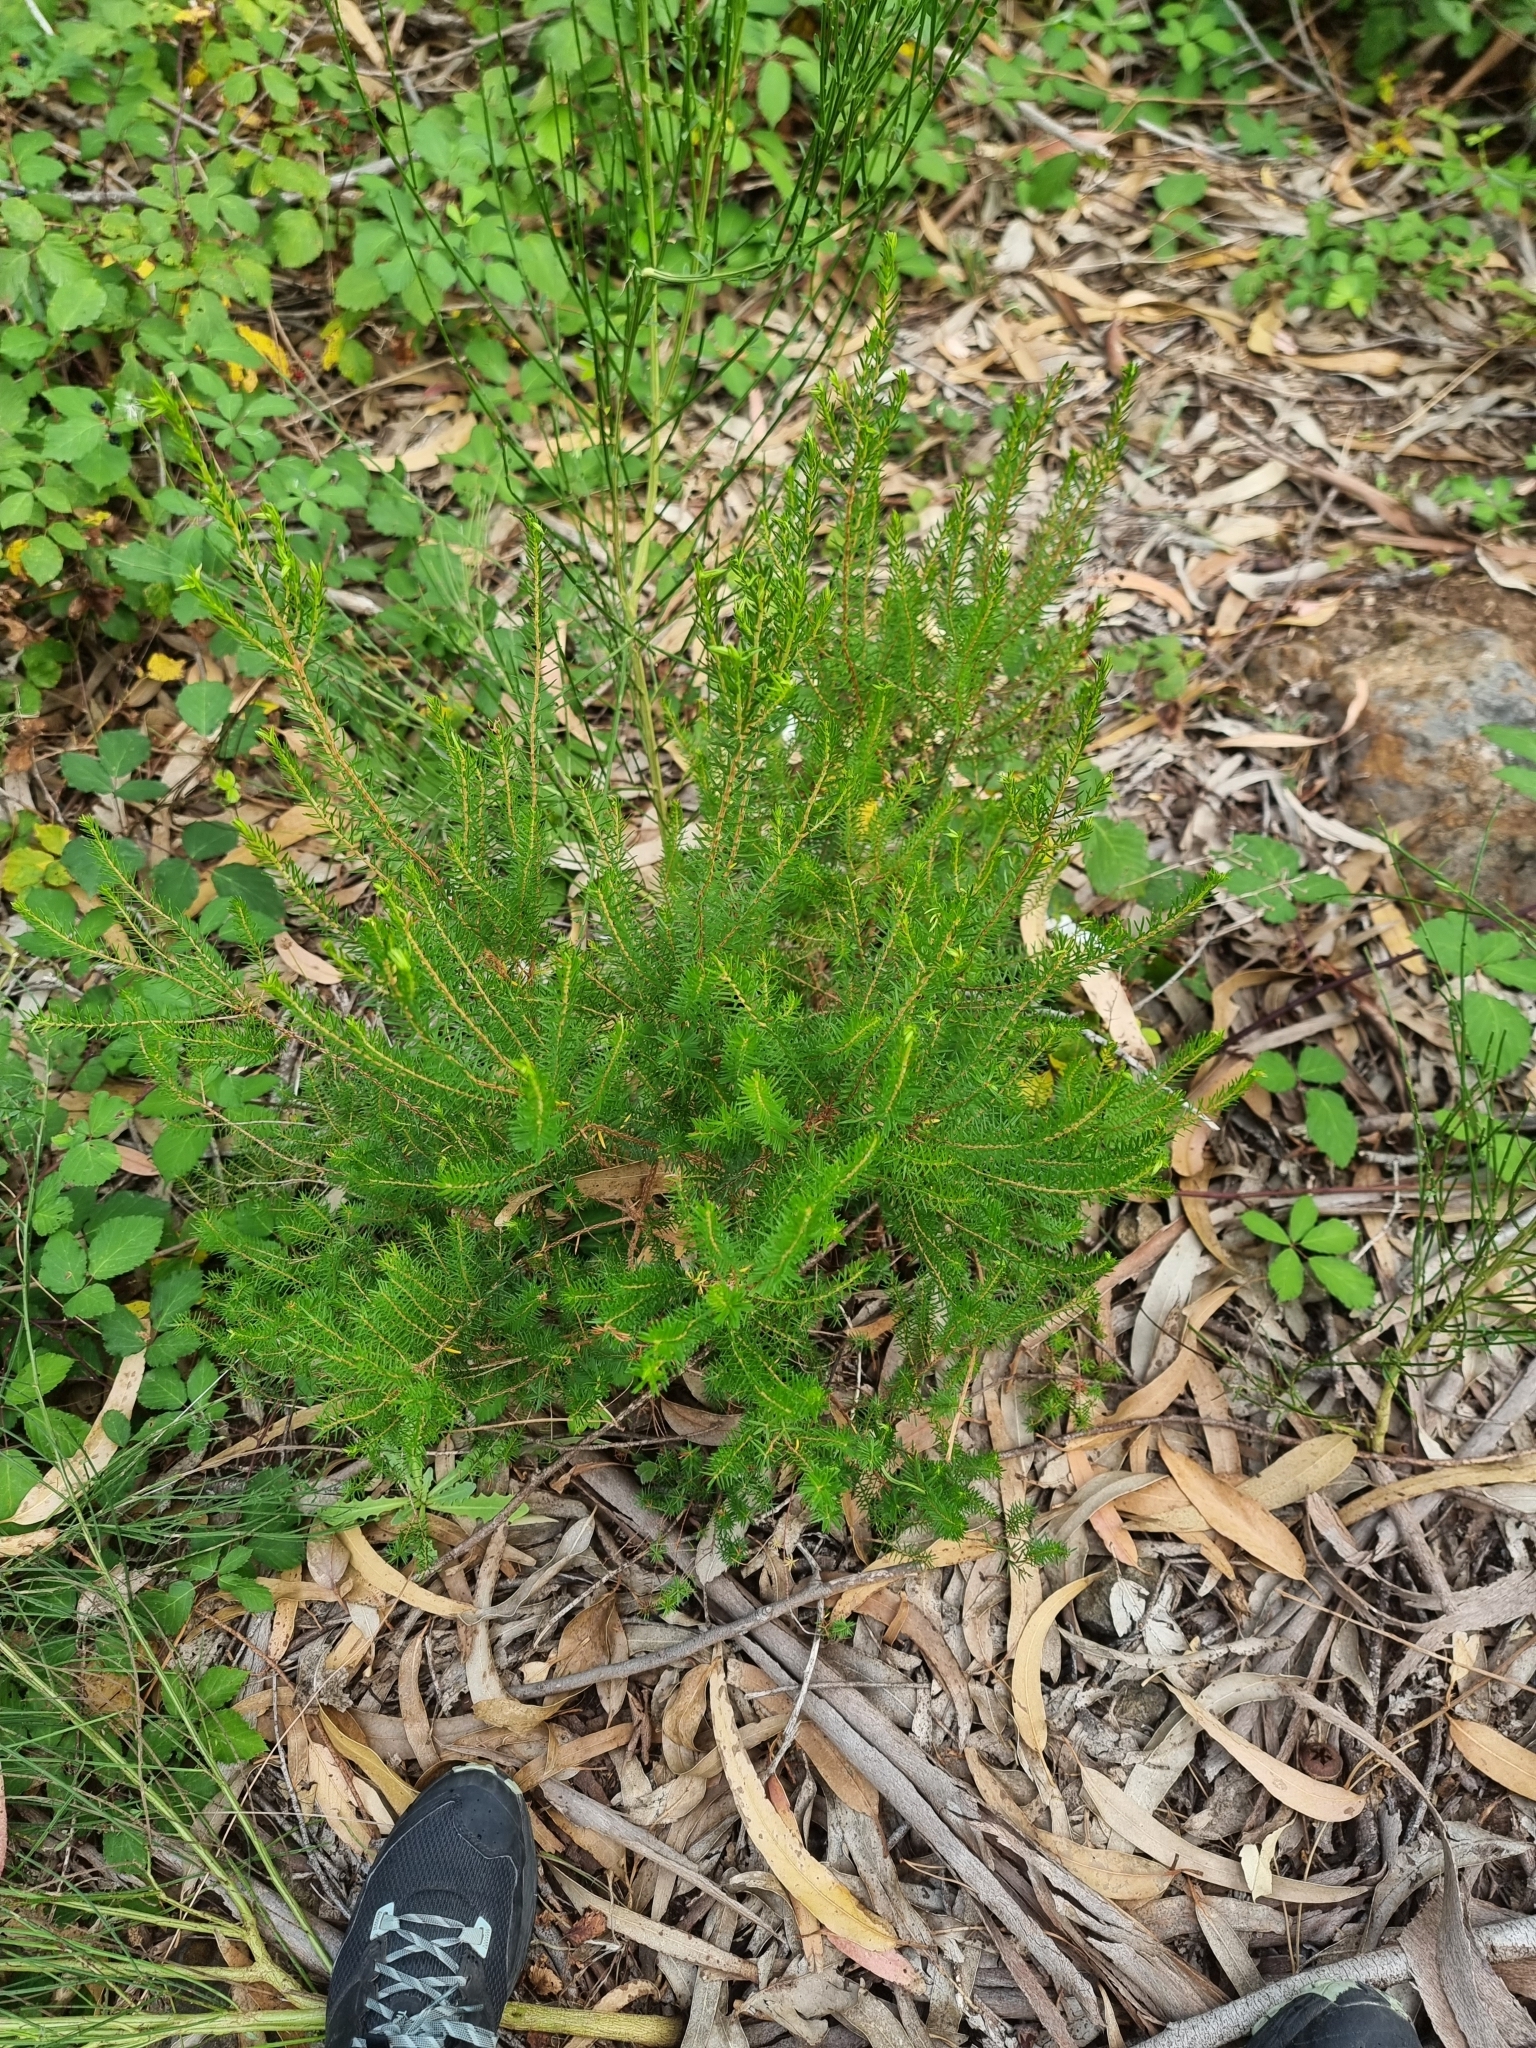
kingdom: Plantae
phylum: Tracheophyta
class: Magnoliopsida
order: Ericales
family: Ericaceae
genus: Erica
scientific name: Erica platycodon
